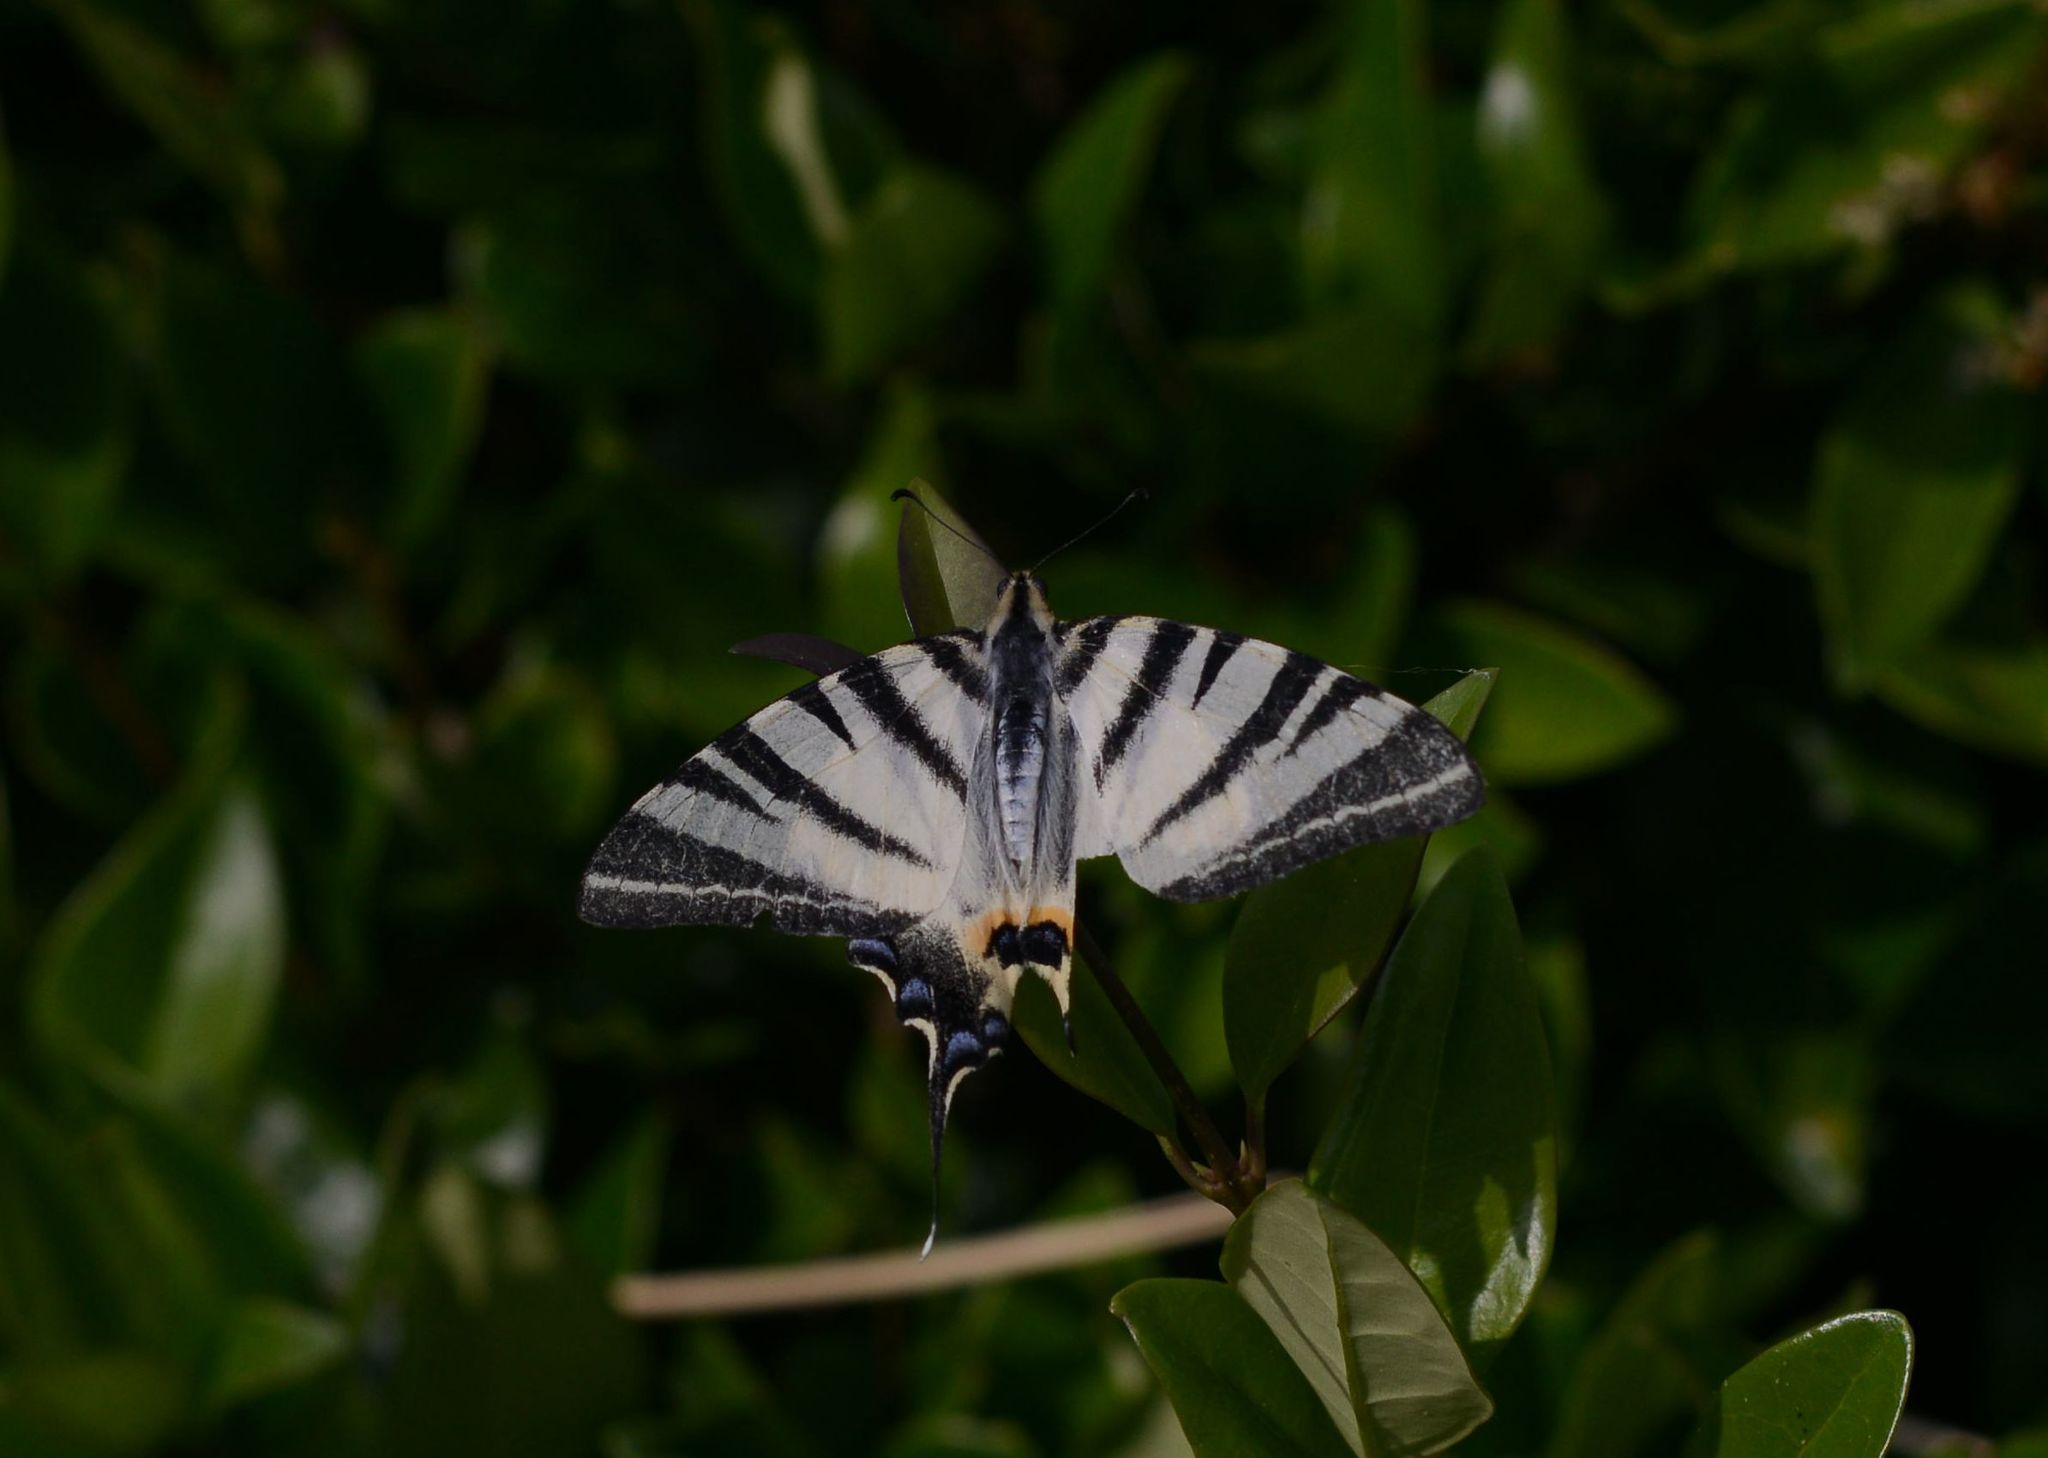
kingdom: Animalia
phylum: Arthropoda
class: Insecta
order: Lepidoptera
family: Papilionidae
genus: Iphiclides
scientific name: Iphiclides podalirius
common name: Scarce swallowtail
